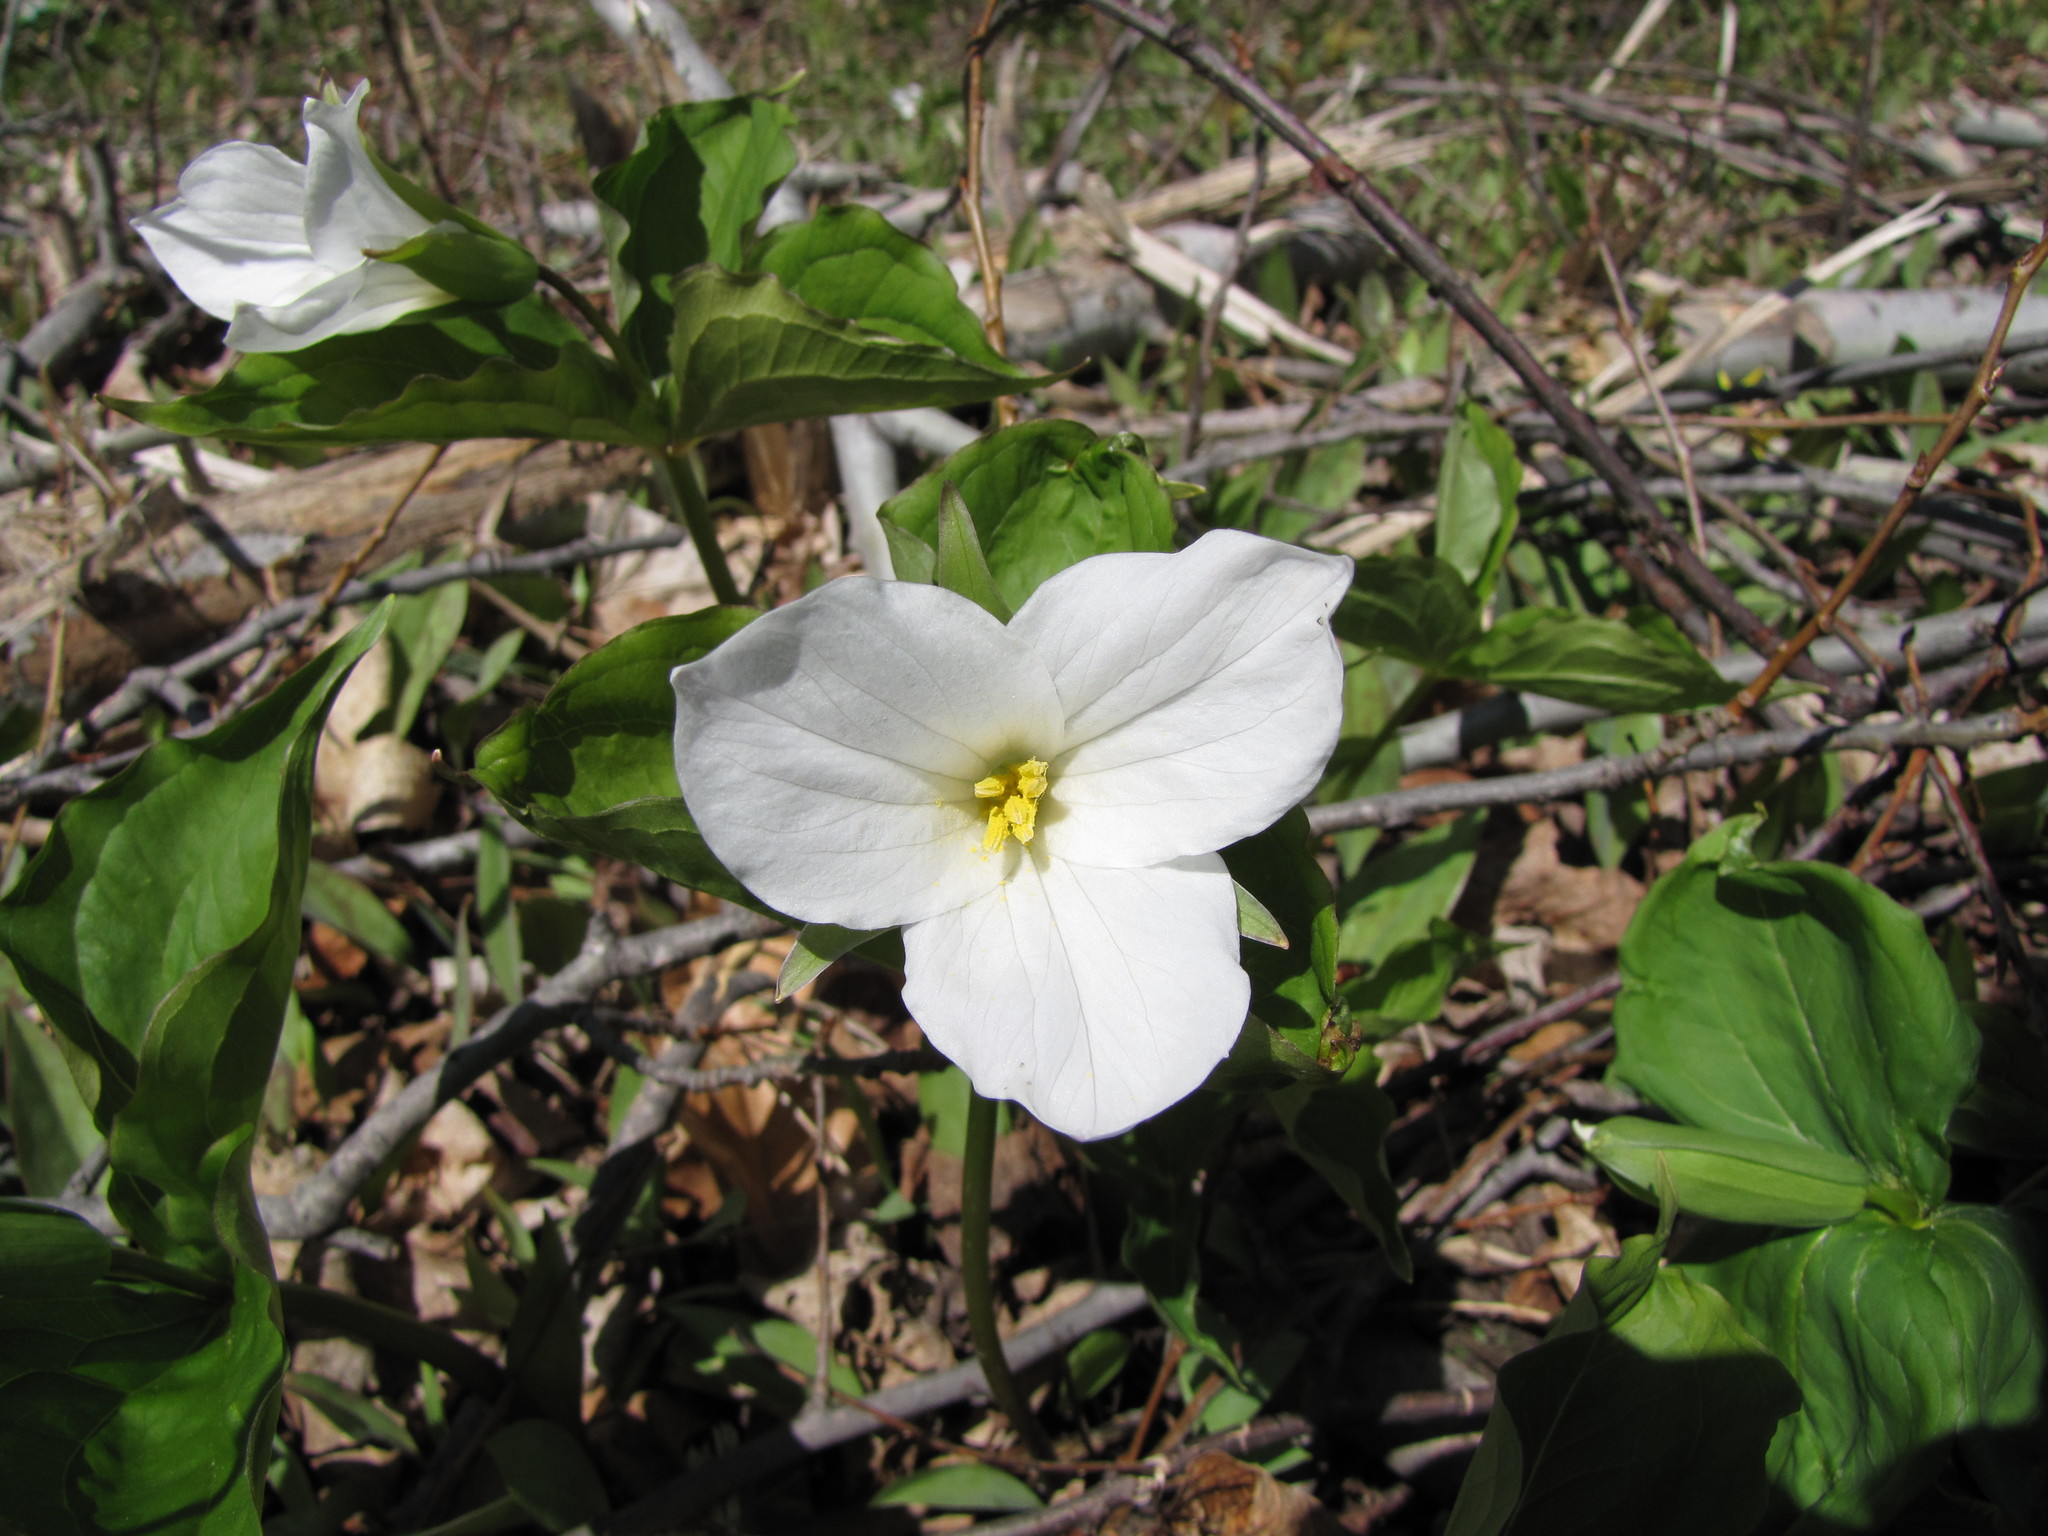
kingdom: Plantae
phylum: Tracheophyta
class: Liliopsida
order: Liliales
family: Melanthiaceae
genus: Trillium
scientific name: Trillium grandiflorum
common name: Great white trillium
